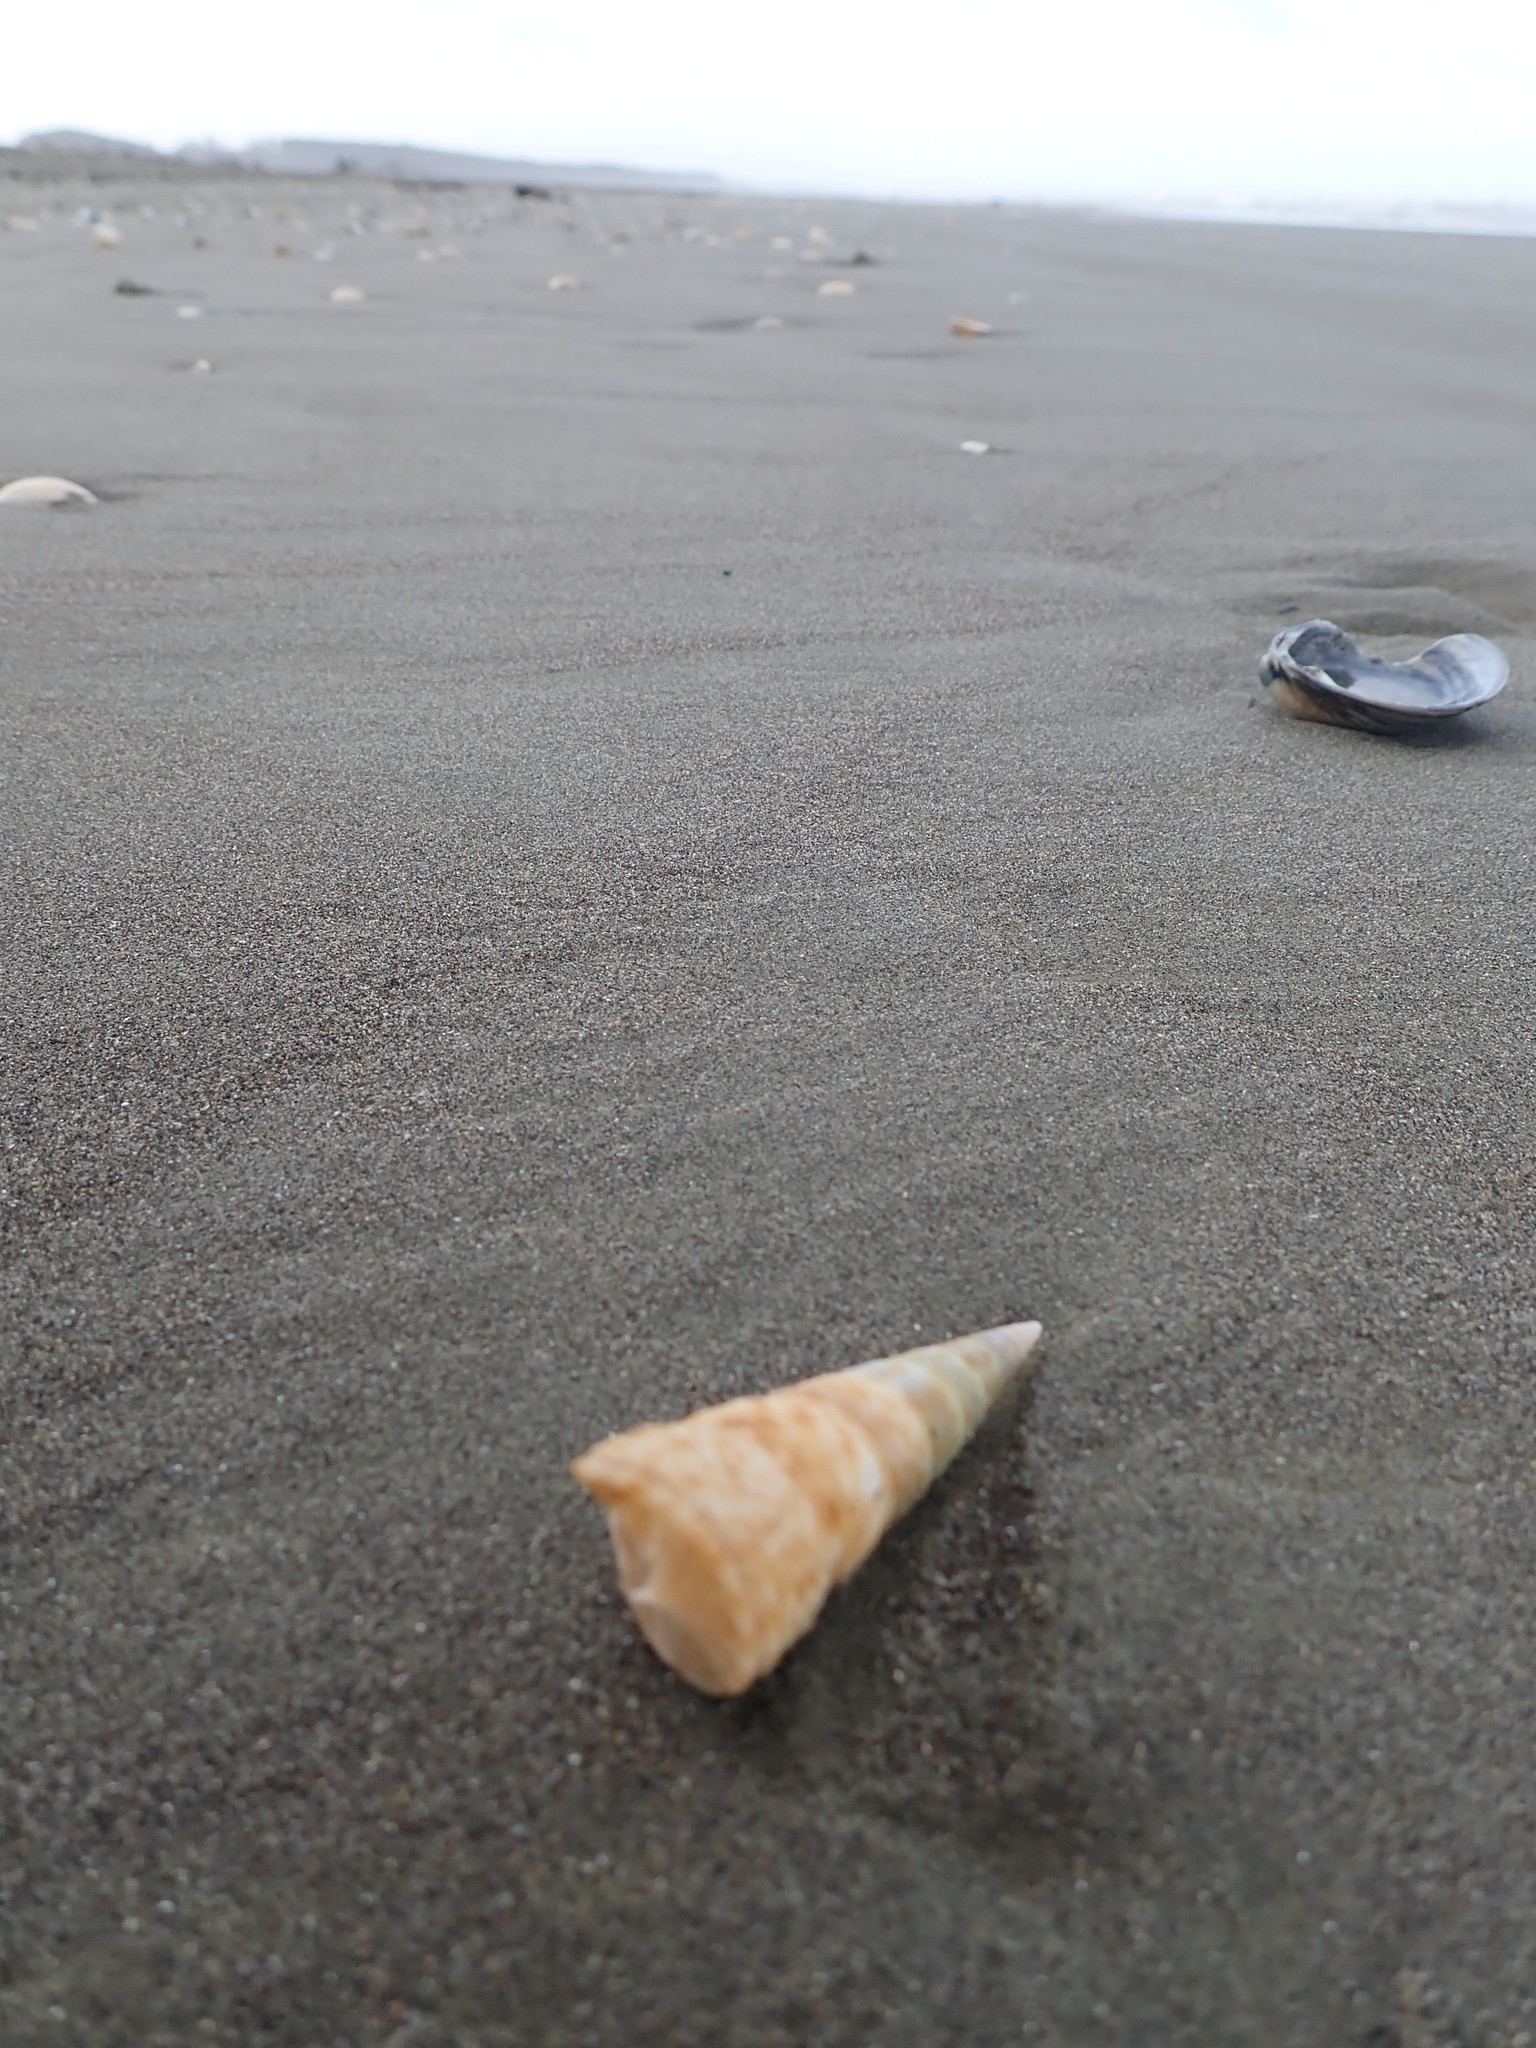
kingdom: Animalia
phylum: Mollusca
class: Gastropoda
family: Turritellidae
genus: Maoricolpus
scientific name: Maoricolpus roseus
